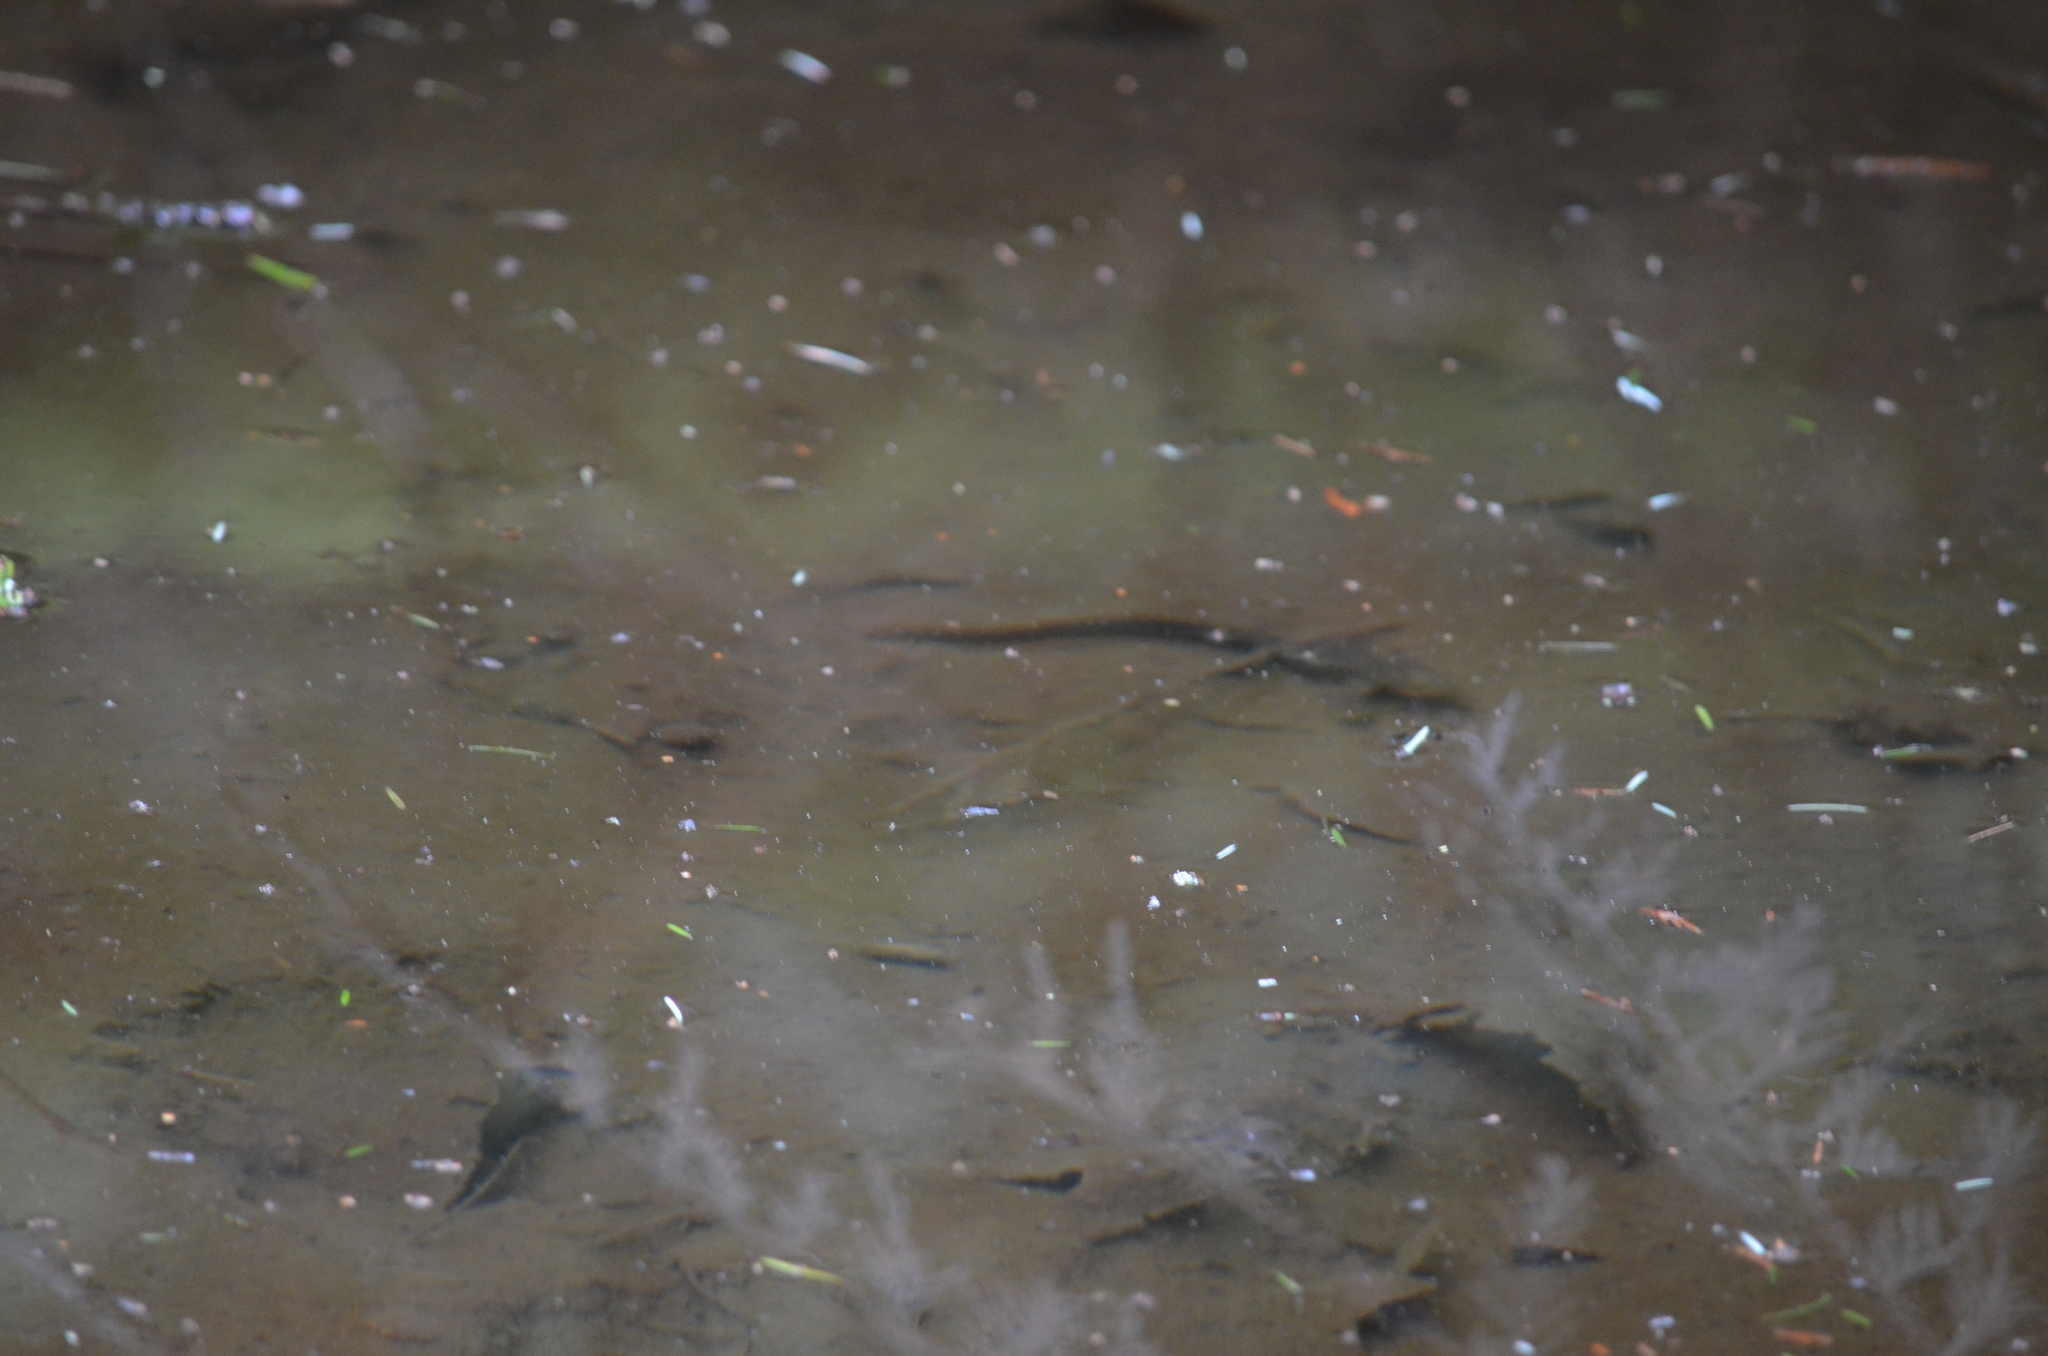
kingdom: Animalia
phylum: Chordata
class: Amphibia
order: Caudata
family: Salamandridae
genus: Taricha
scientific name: Taricha granulosa
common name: Roughskin newt
